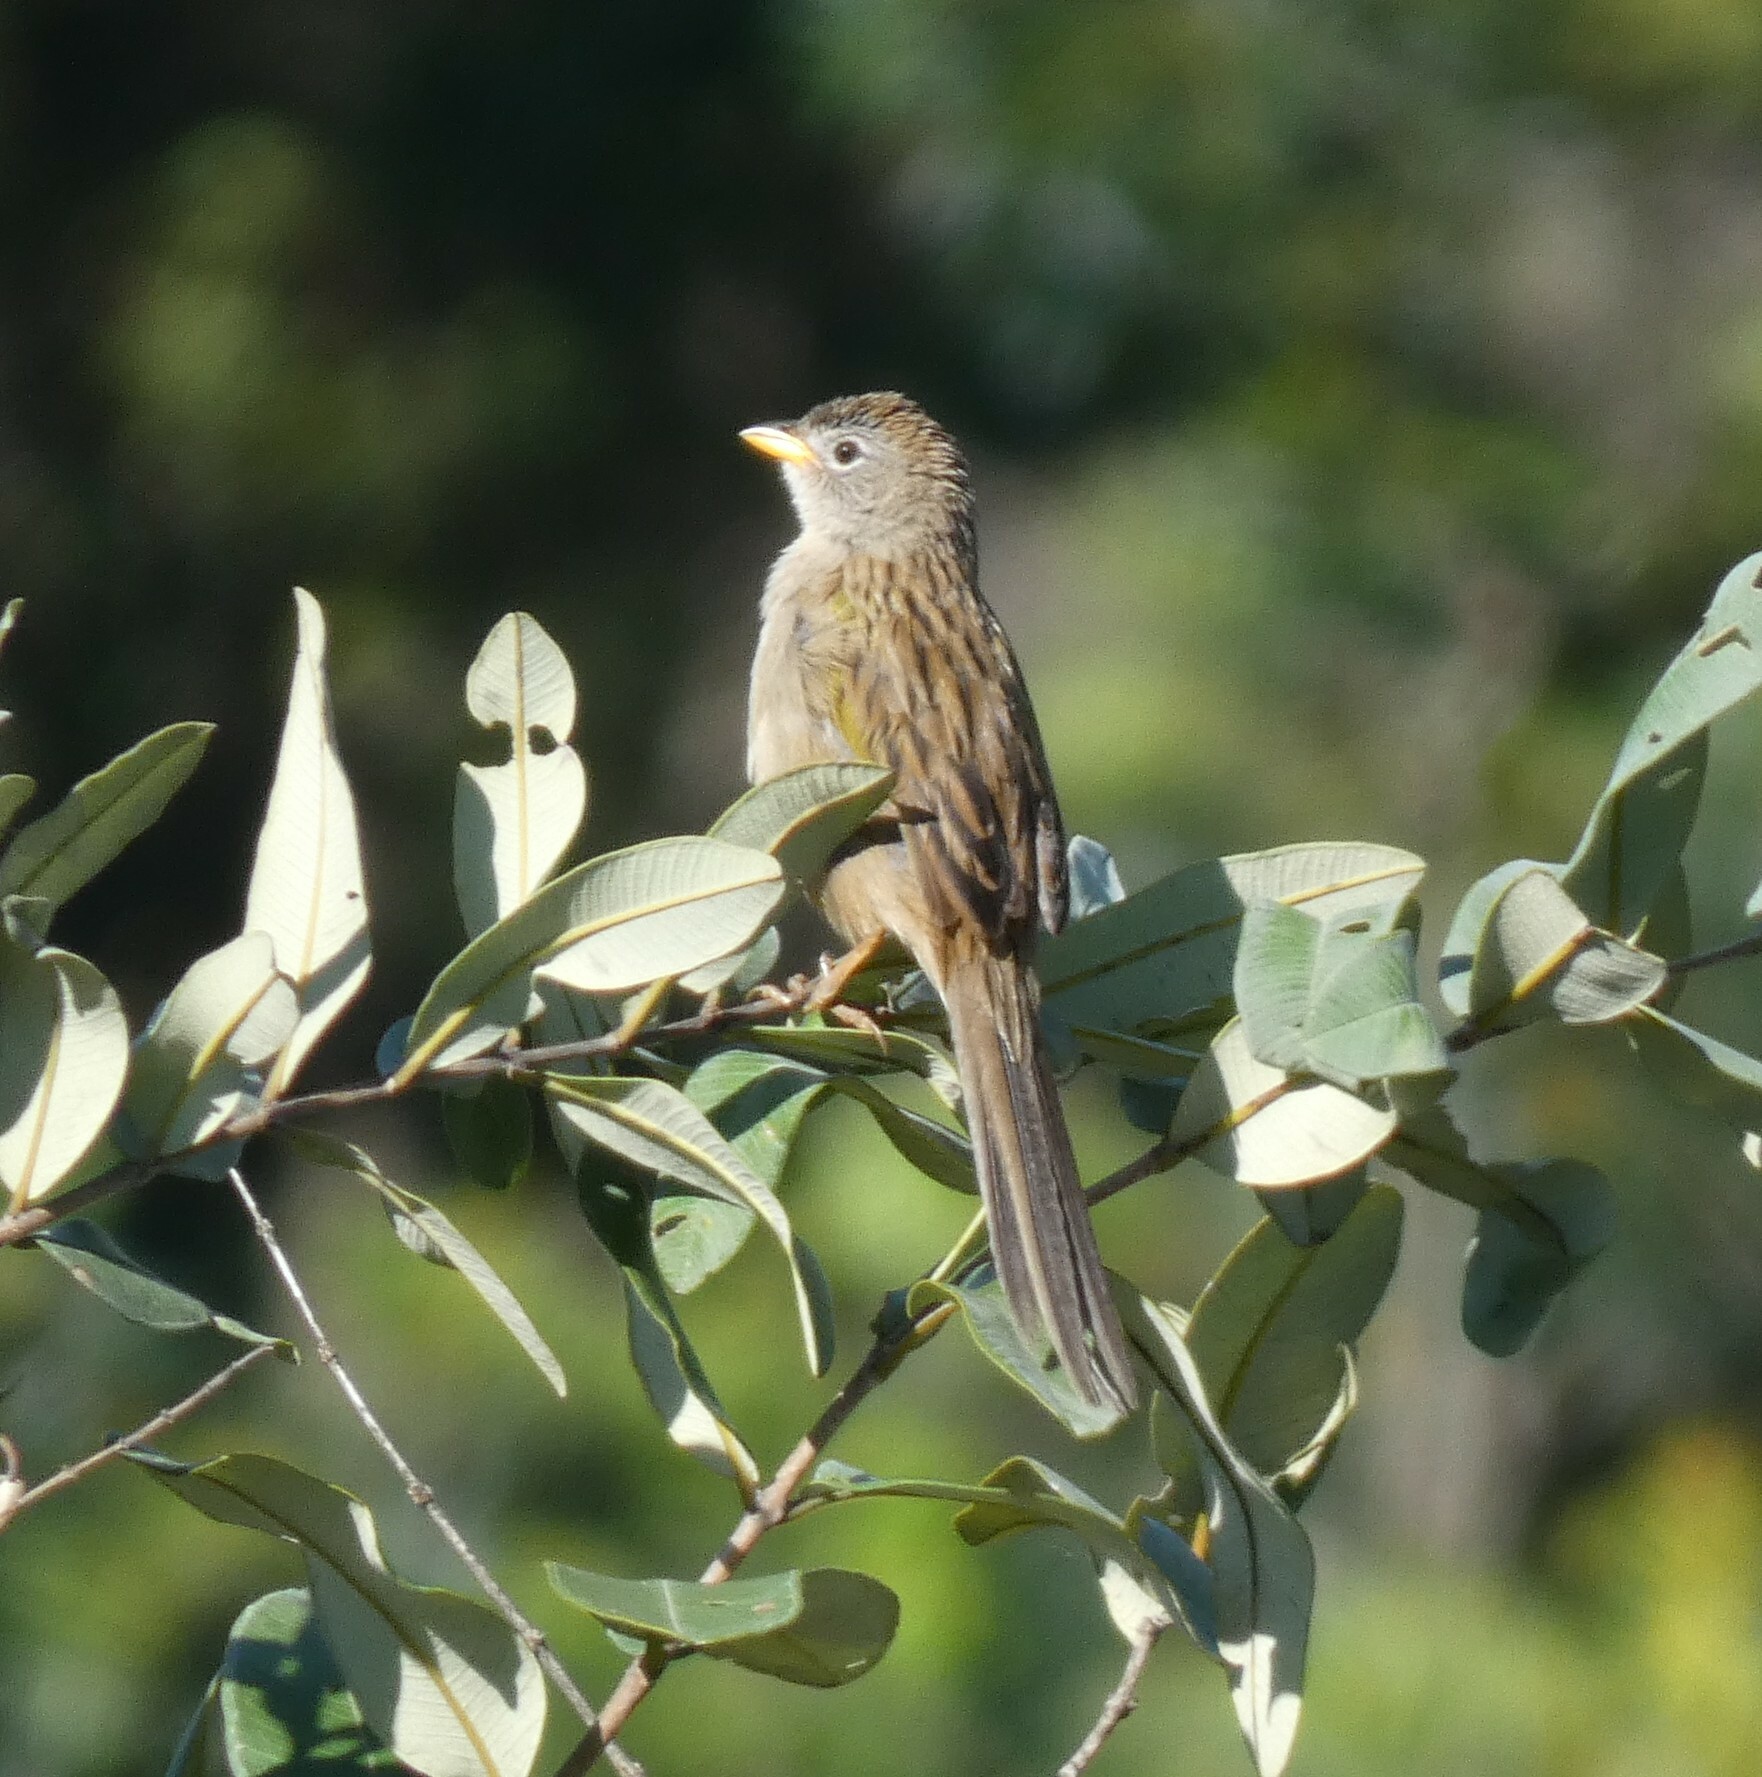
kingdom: Animalia
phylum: Chordata
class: Aves
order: Passeriformes
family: Thraupidae
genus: Emberizoides
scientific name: Emberizoides herbicola
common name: Wedge-tailed grass-finch
